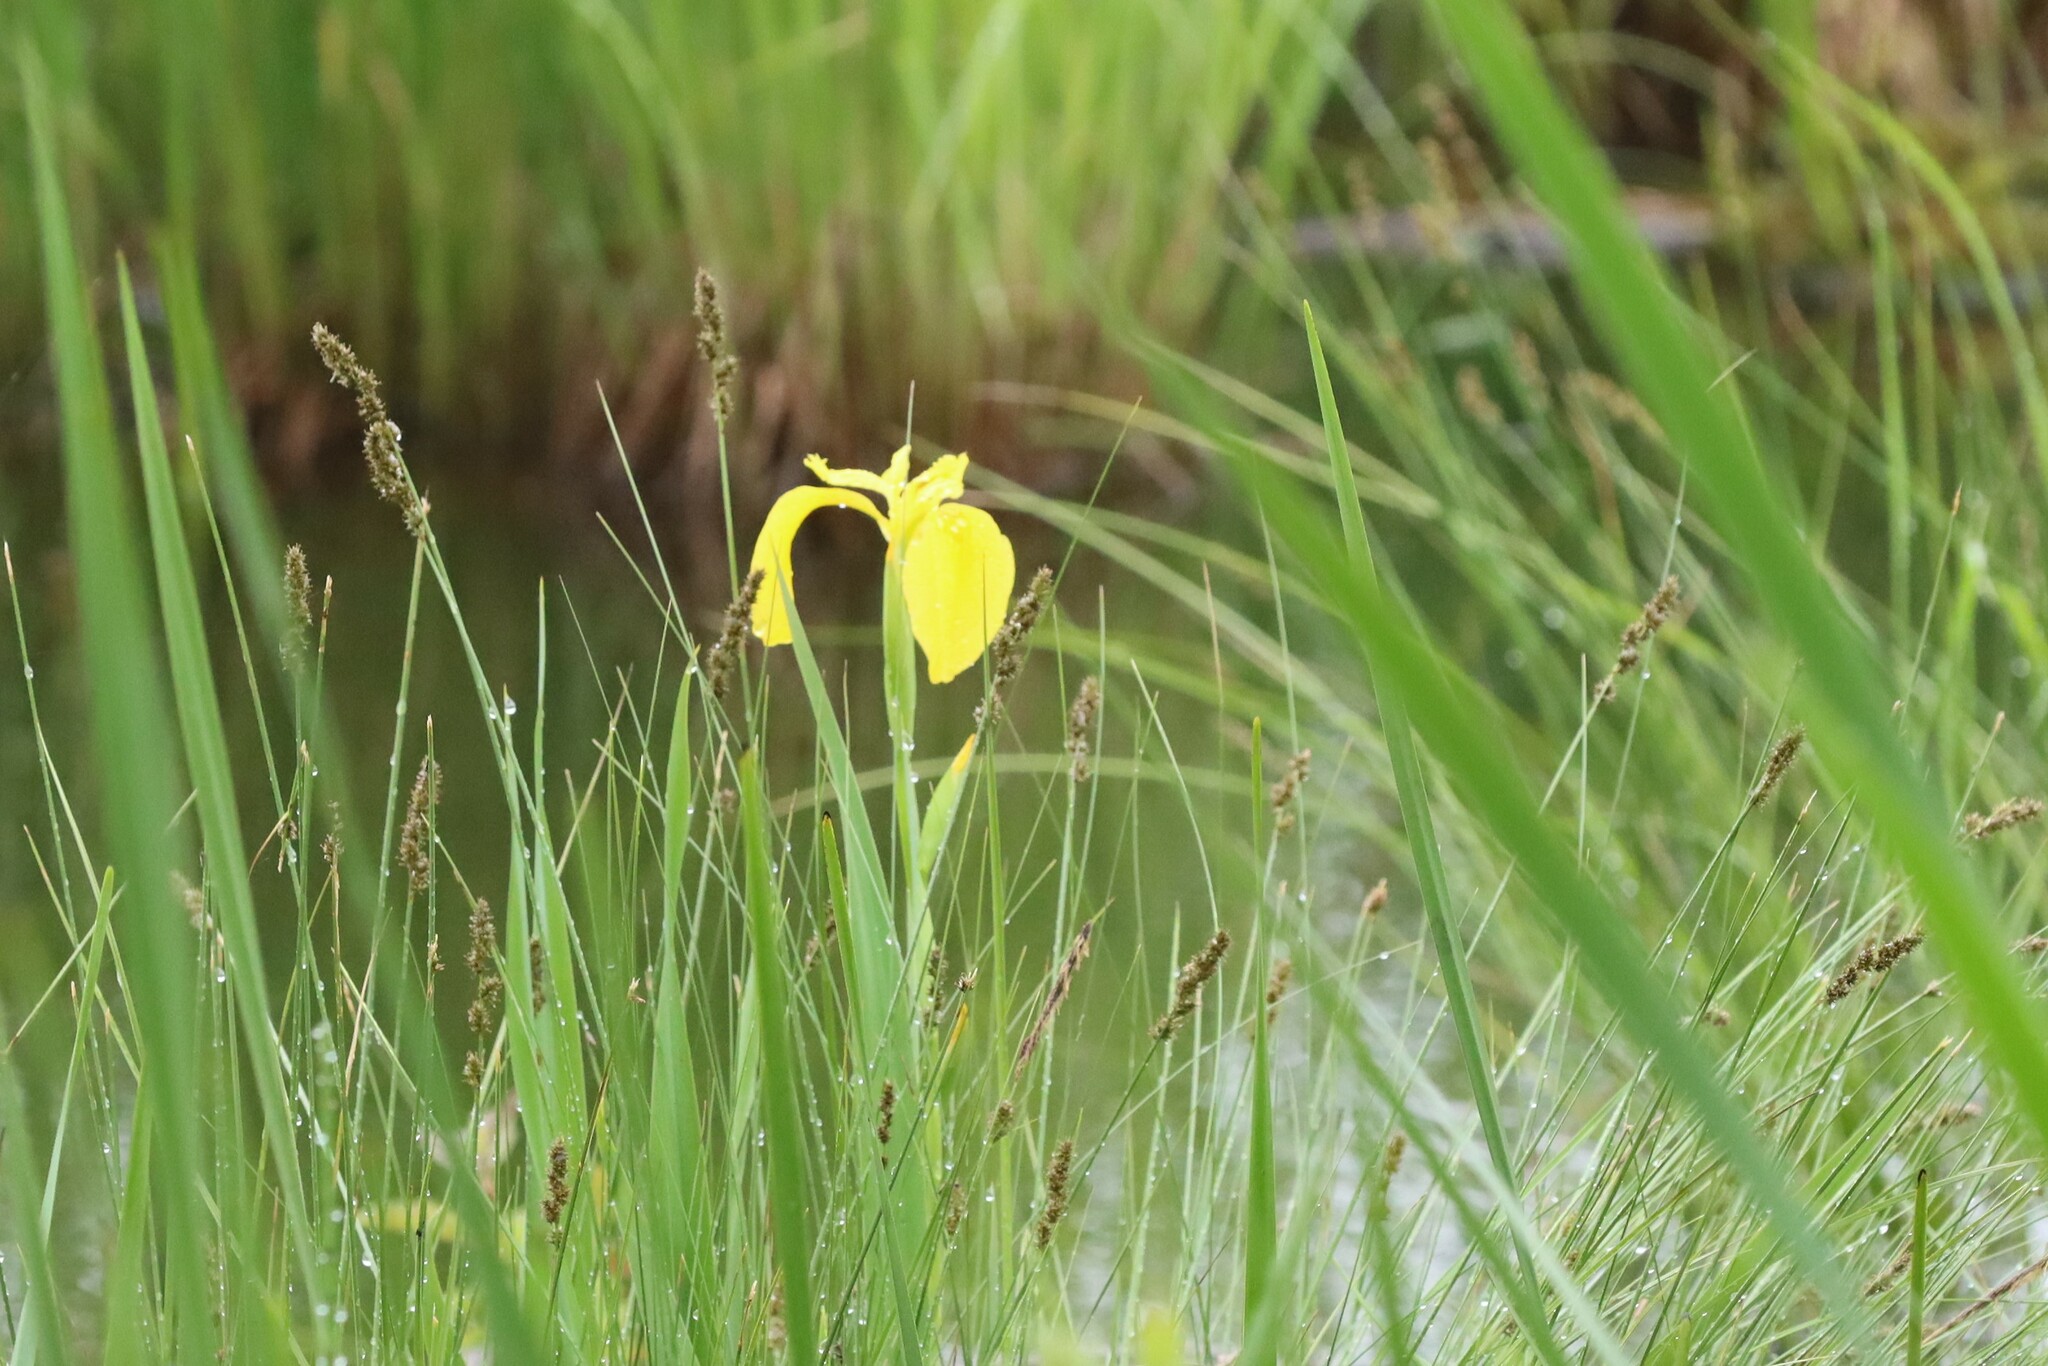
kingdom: Plantae
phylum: Tracheophyta
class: Liliopsida
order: Asparagales
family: Iridaceae
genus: Iris
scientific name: Iris pseudacorus
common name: Yellow flag
